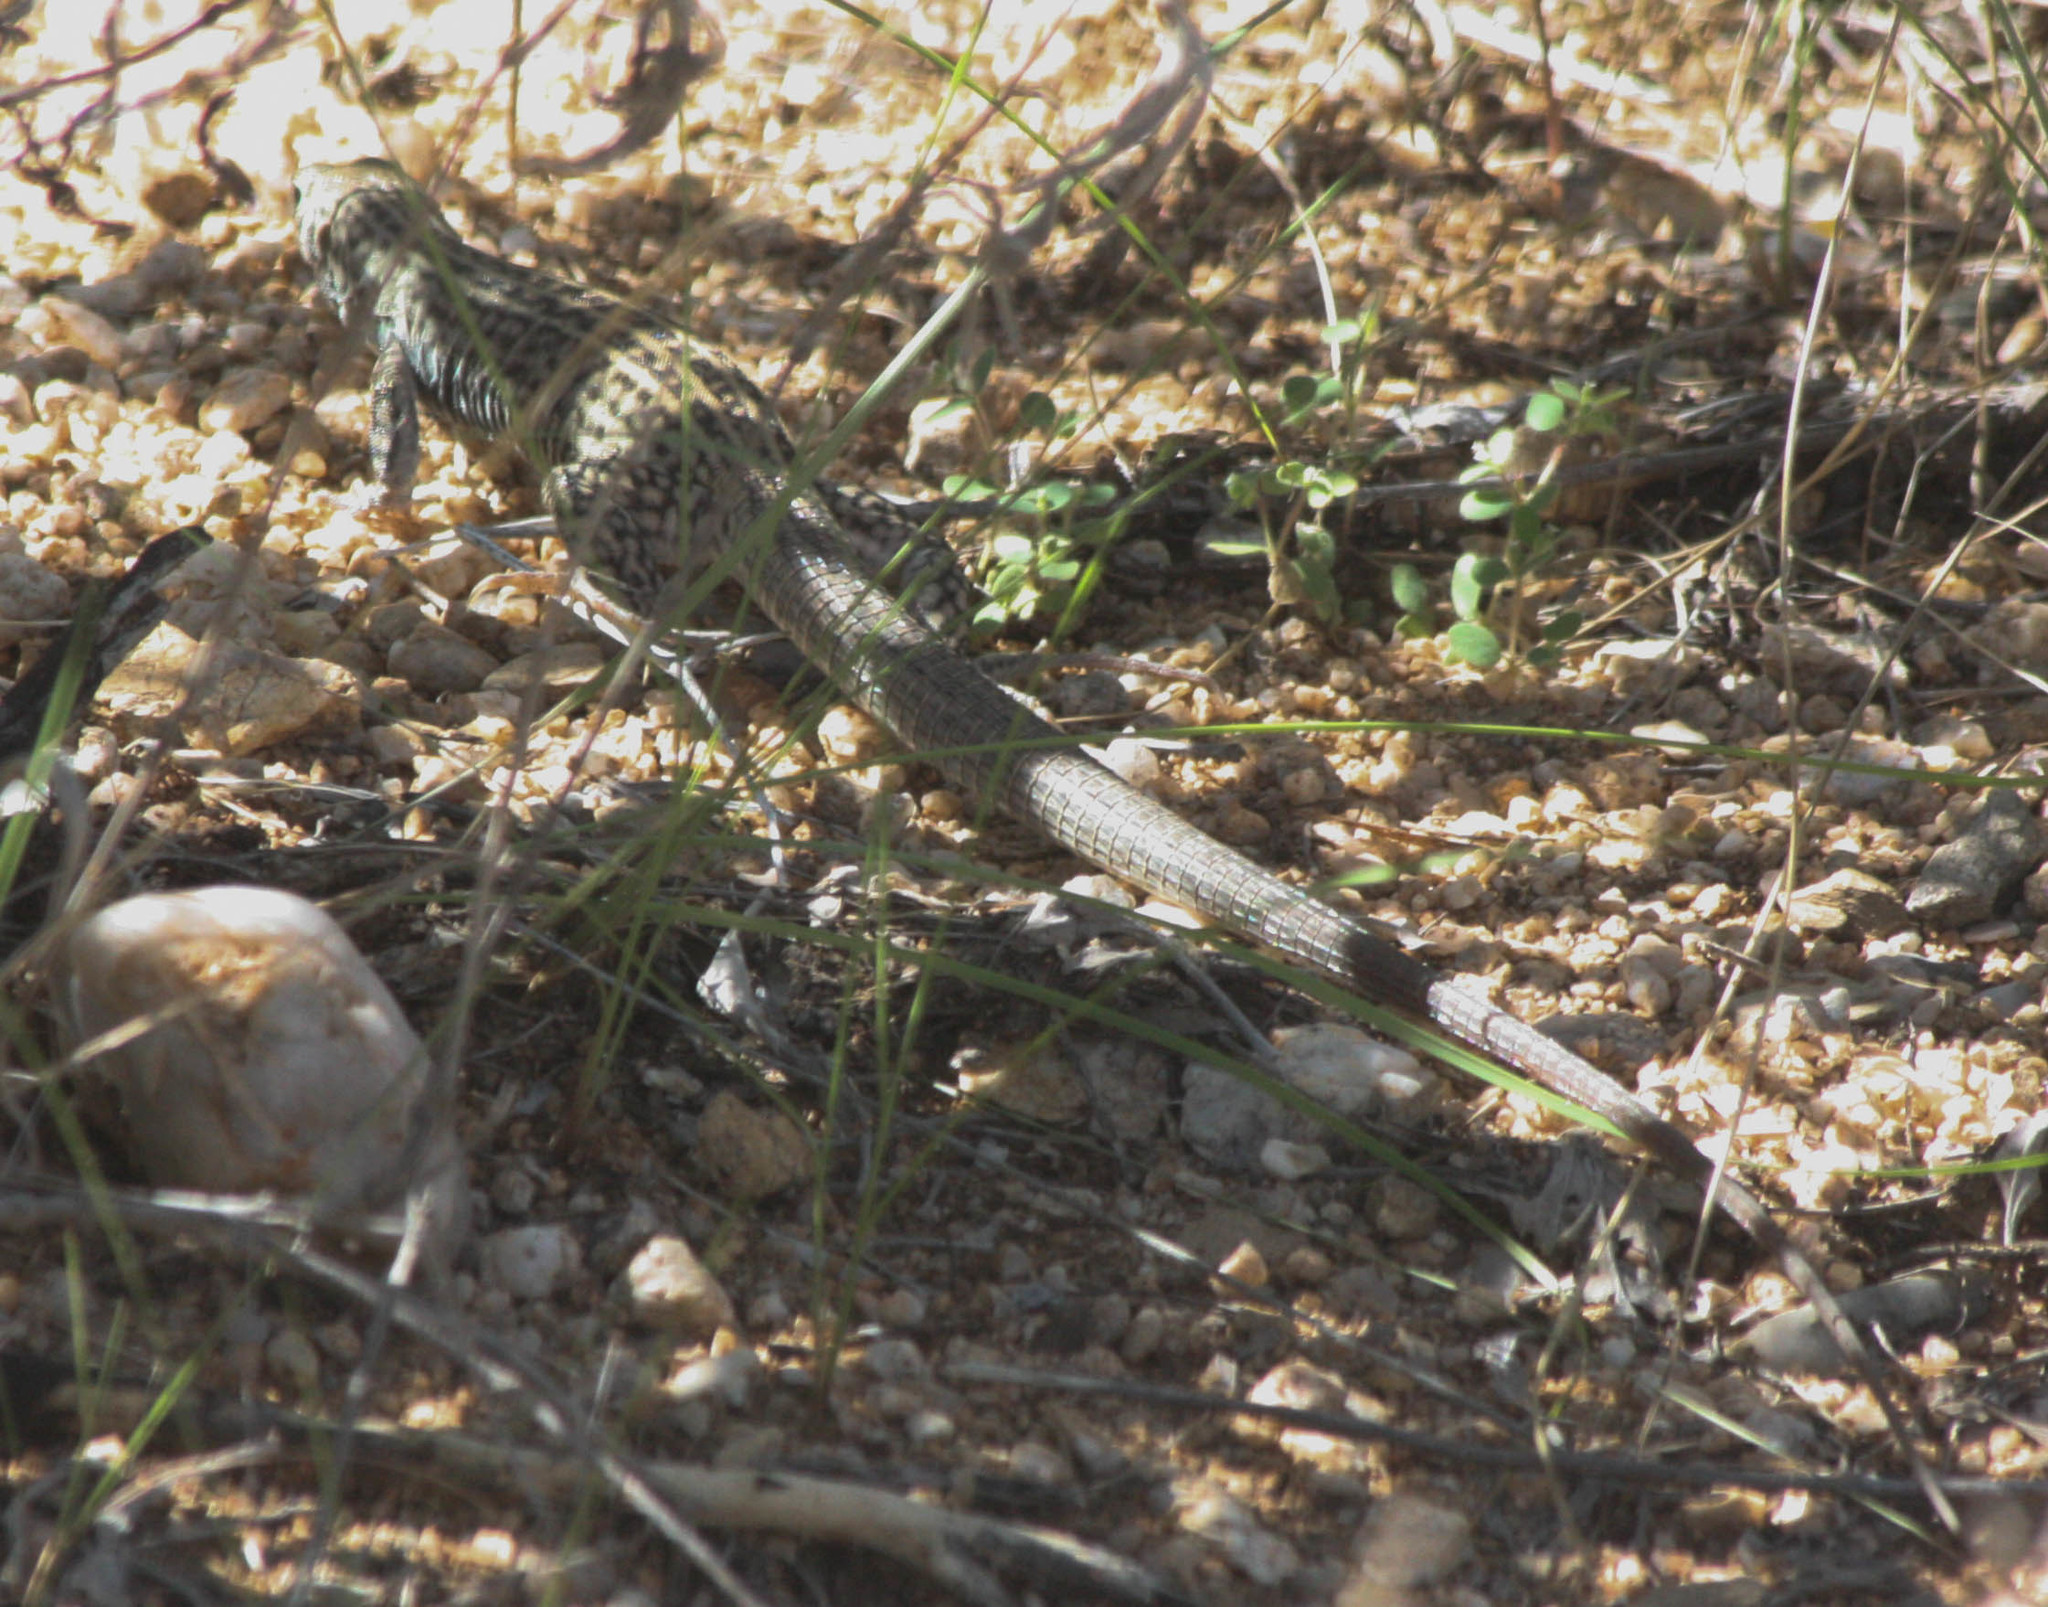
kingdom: Animalia
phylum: Chordata
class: Squamata
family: Teiidae
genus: Aspidoscelis
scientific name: Aspidoscelis tigris
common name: Tiger whiptail
